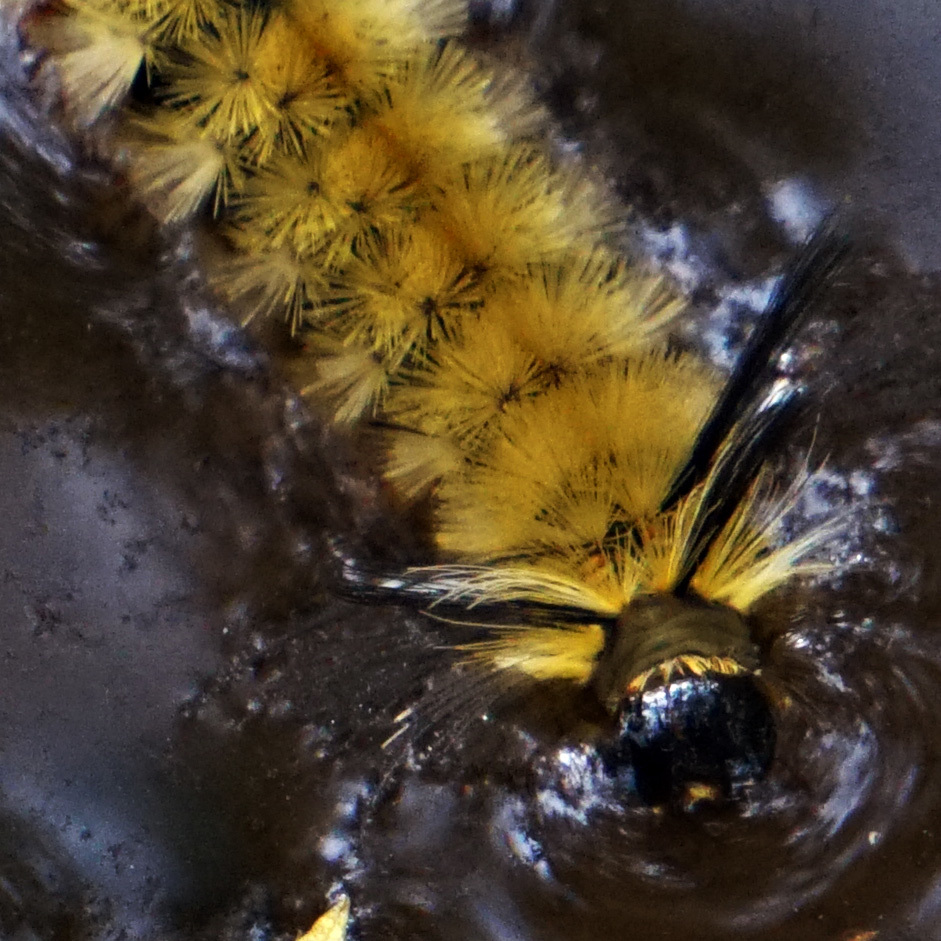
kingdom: Animalia
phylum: Arthropoda
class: Insecta
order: Lepidoptera
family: Erebidae
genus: Halysidota
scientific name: Halysidota tessellaris
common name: Banded tussock moth
